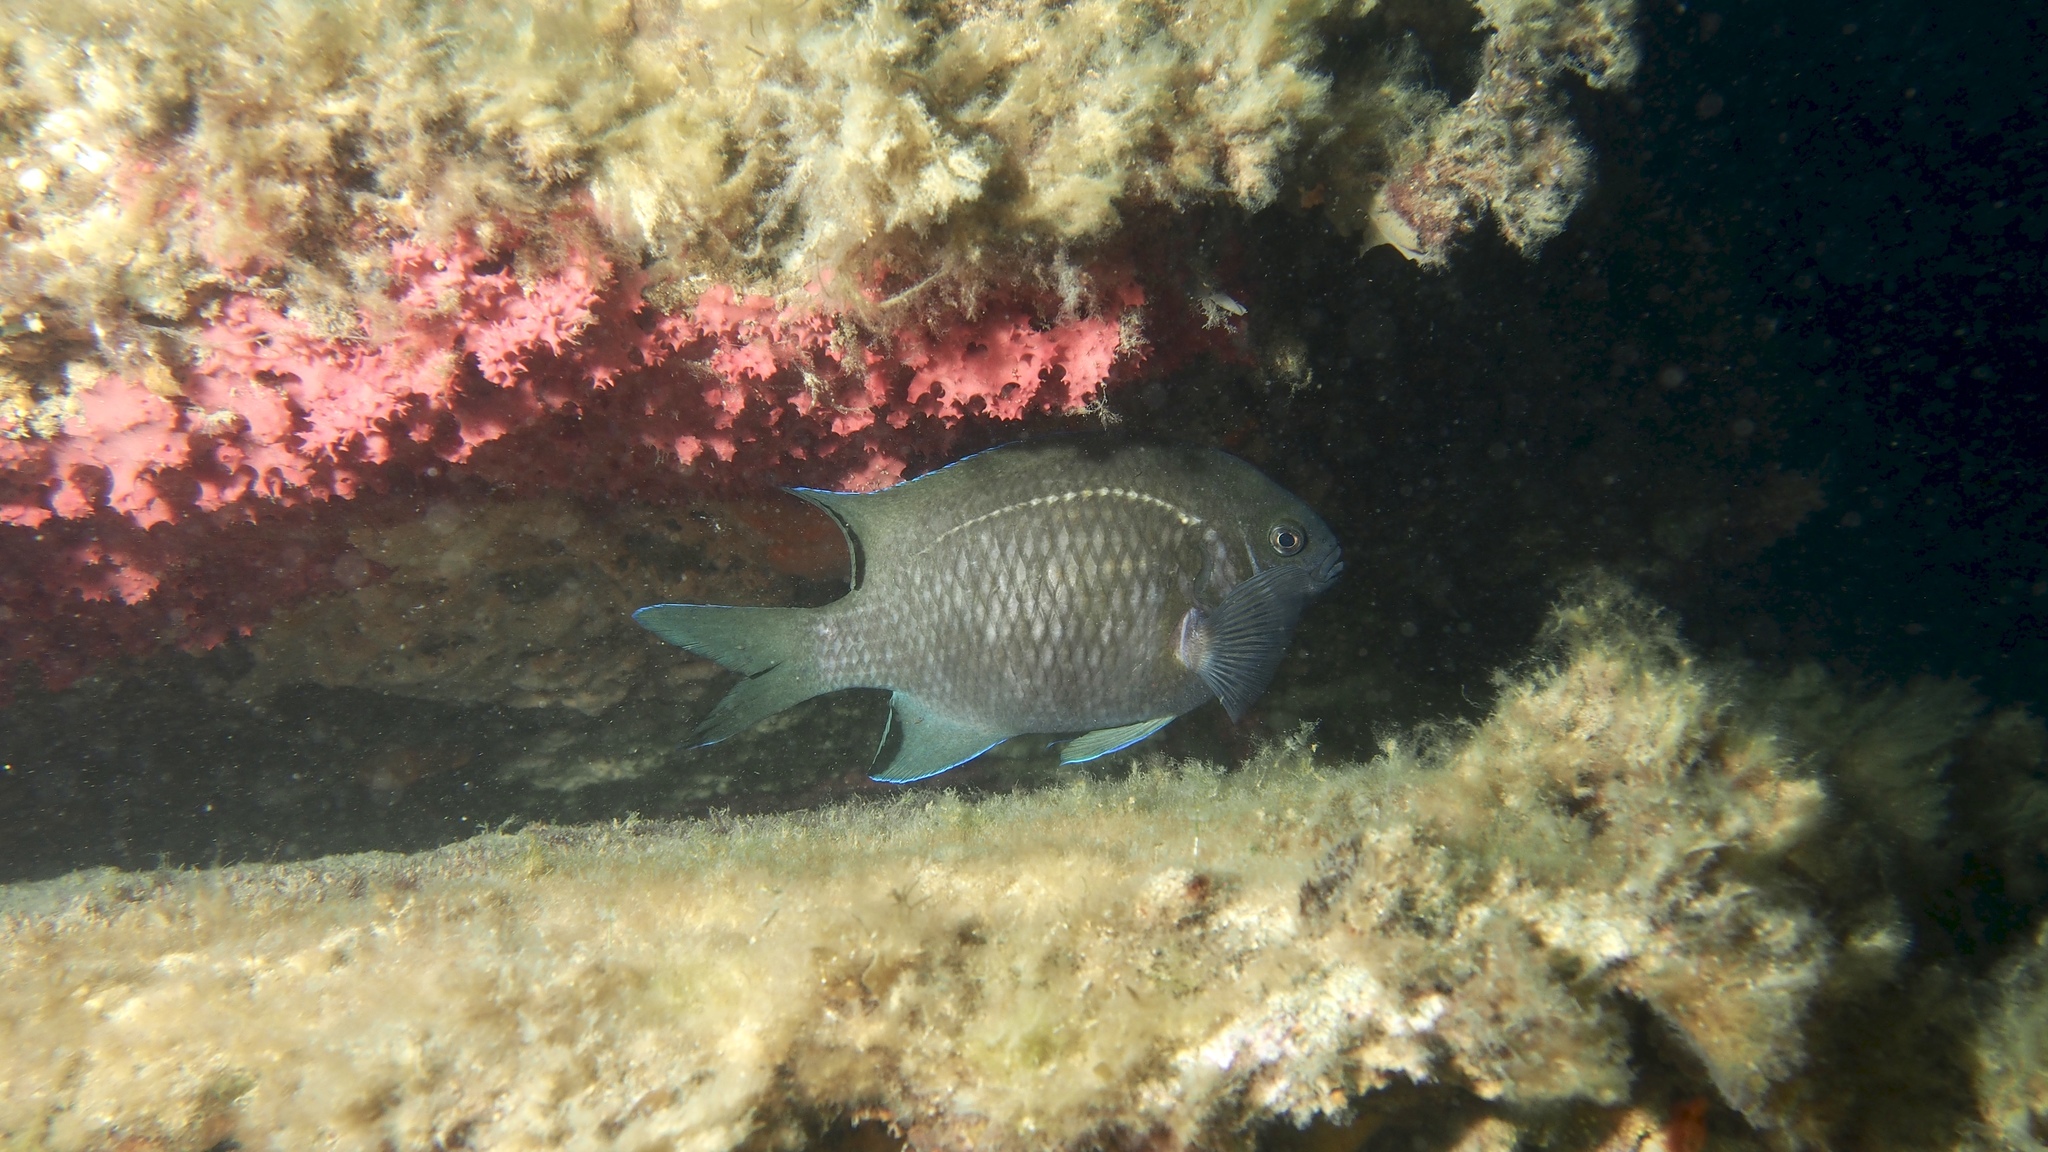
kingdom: Animalia
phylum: Chordata
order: Perciformes
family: Pomacentridae
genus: Parma
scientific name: Parma victoriae
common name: Rock perch
